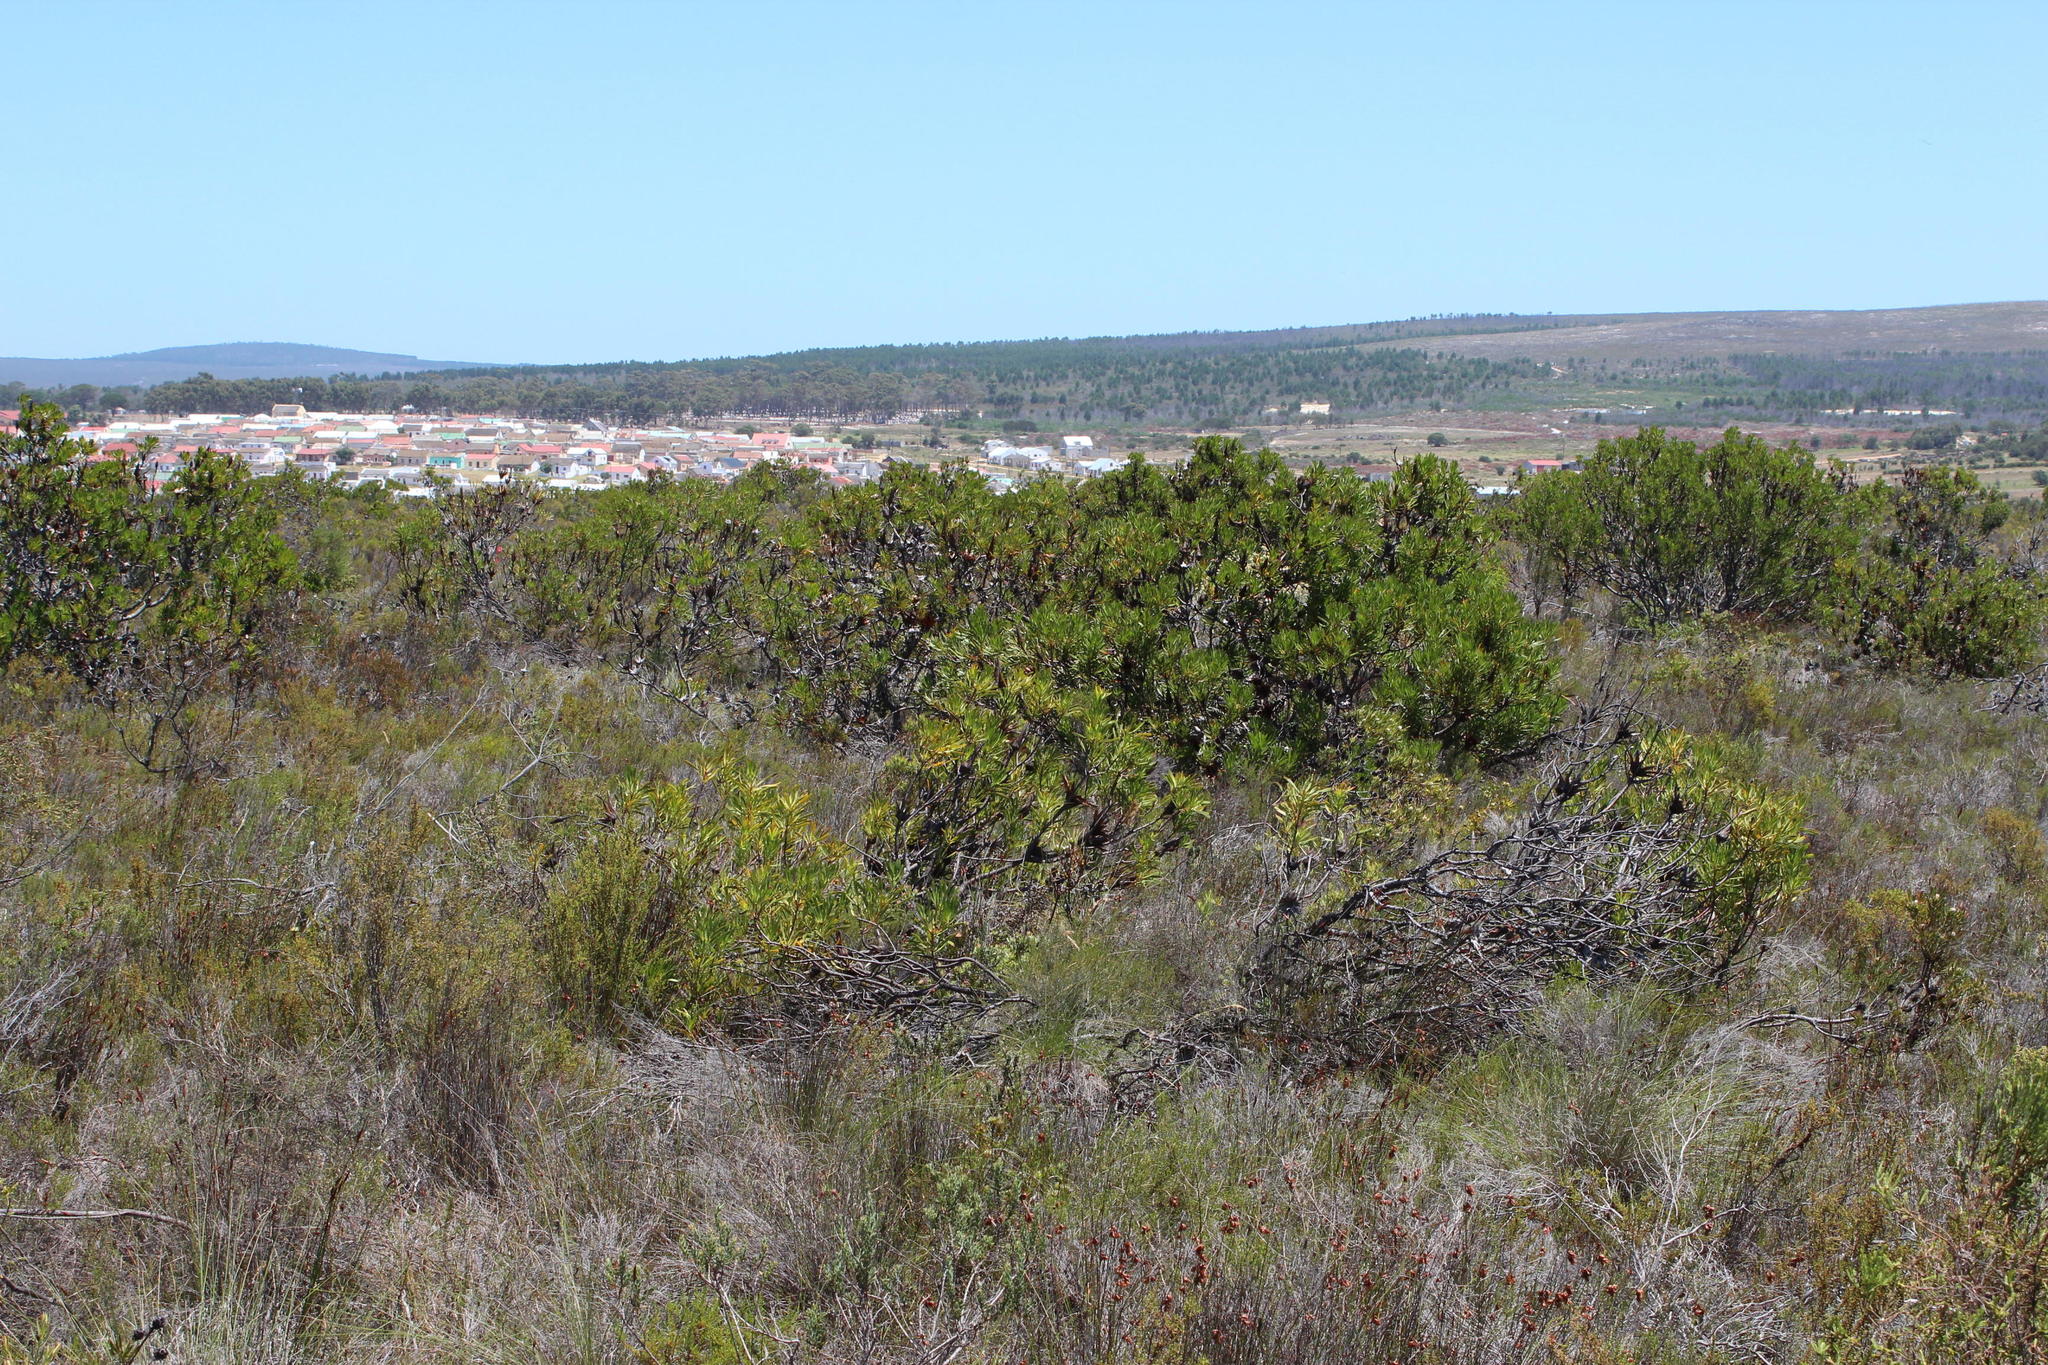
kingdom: Plantae
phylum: Tracheophyta
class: Magnoliopsida
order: Proteales
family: Proteaceae
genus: Protea
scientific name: Protea repens
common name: Sugarbush
